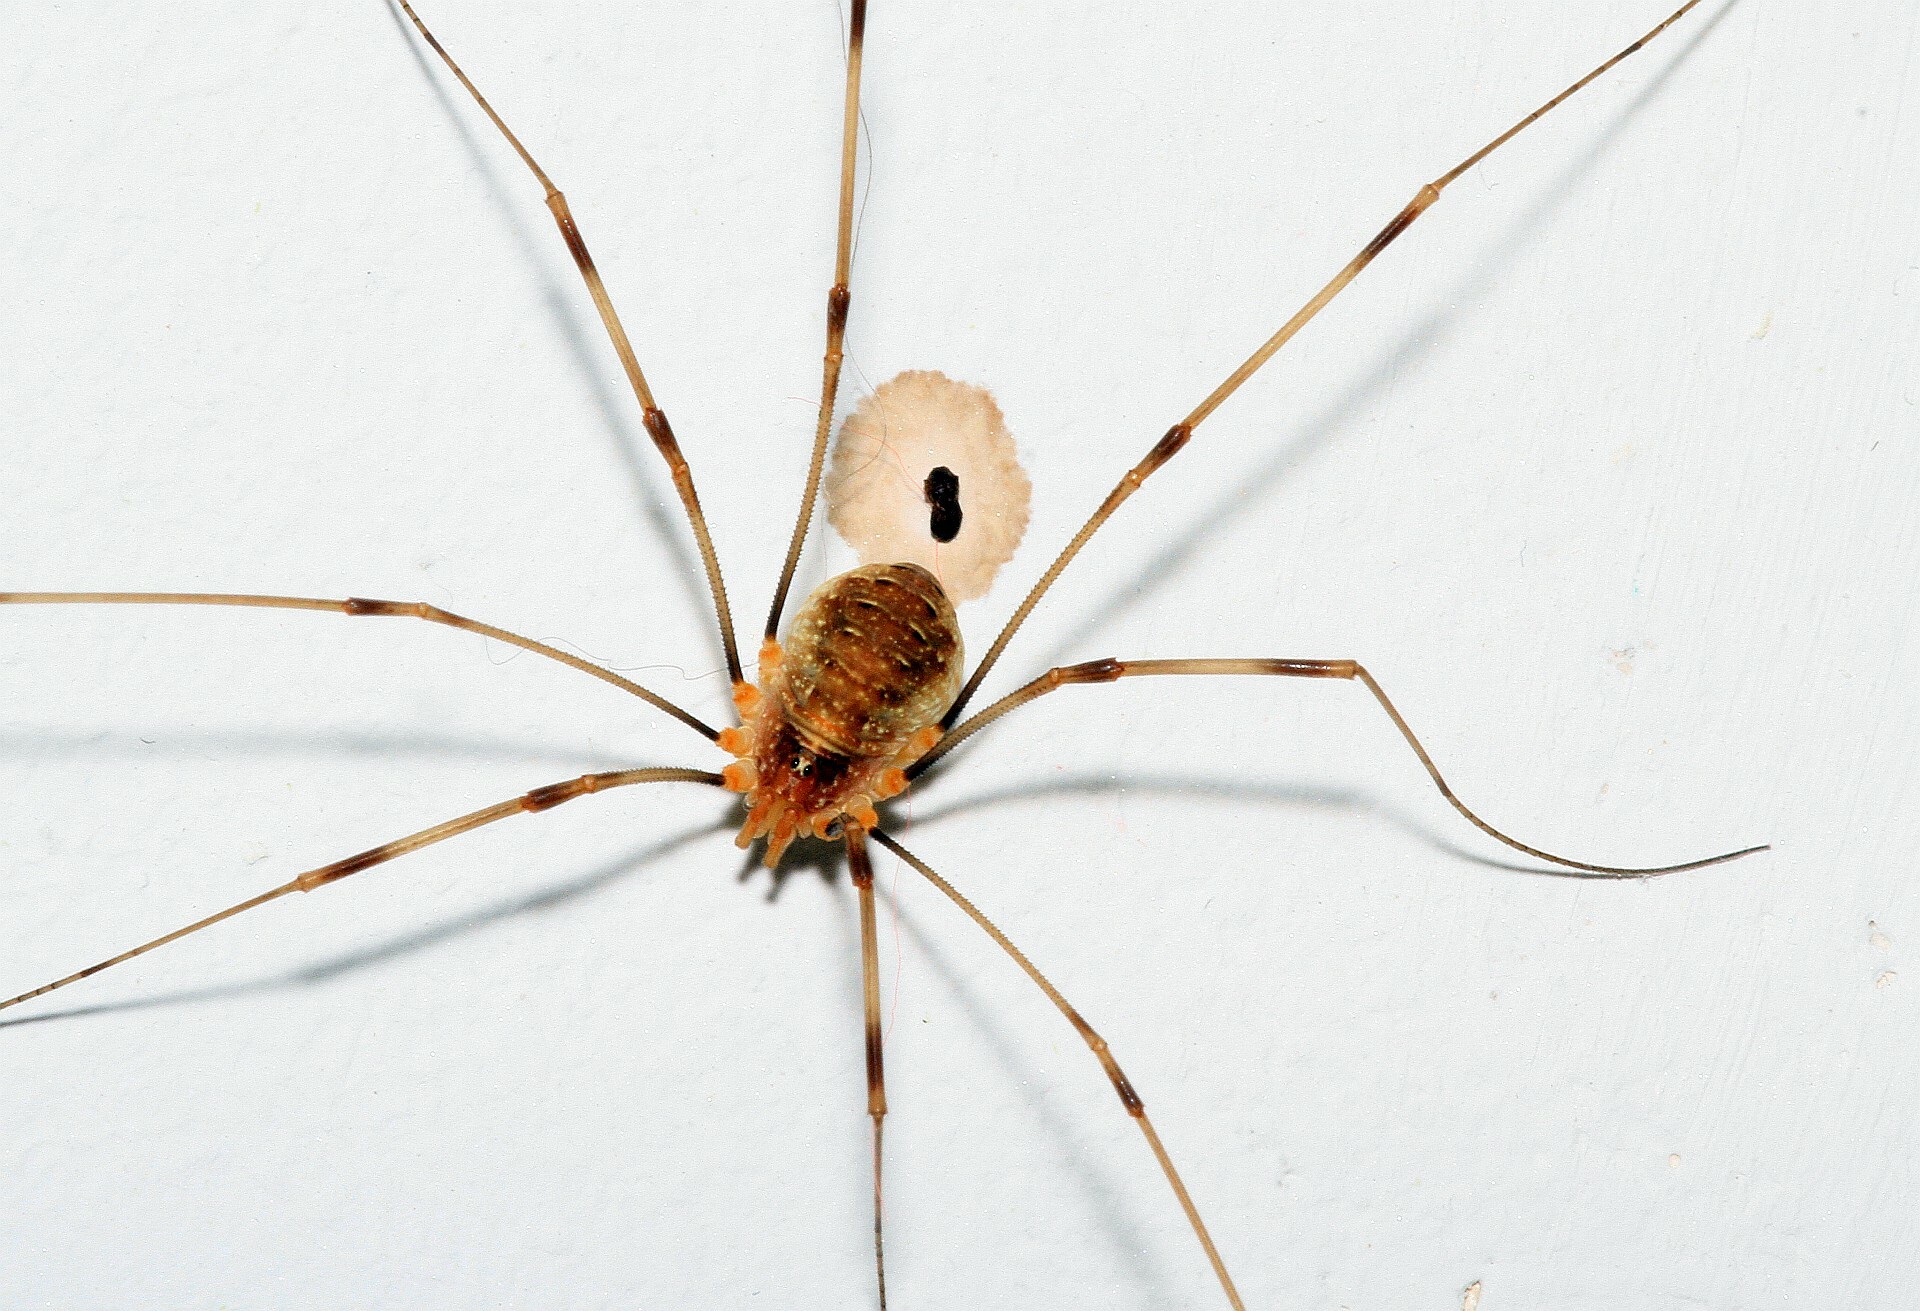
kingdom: Animalia
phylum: Arthropoda
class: Arachnida
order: Opiliones
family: Phalangiidae
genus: Opilio
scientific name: Opilio canestrinii
